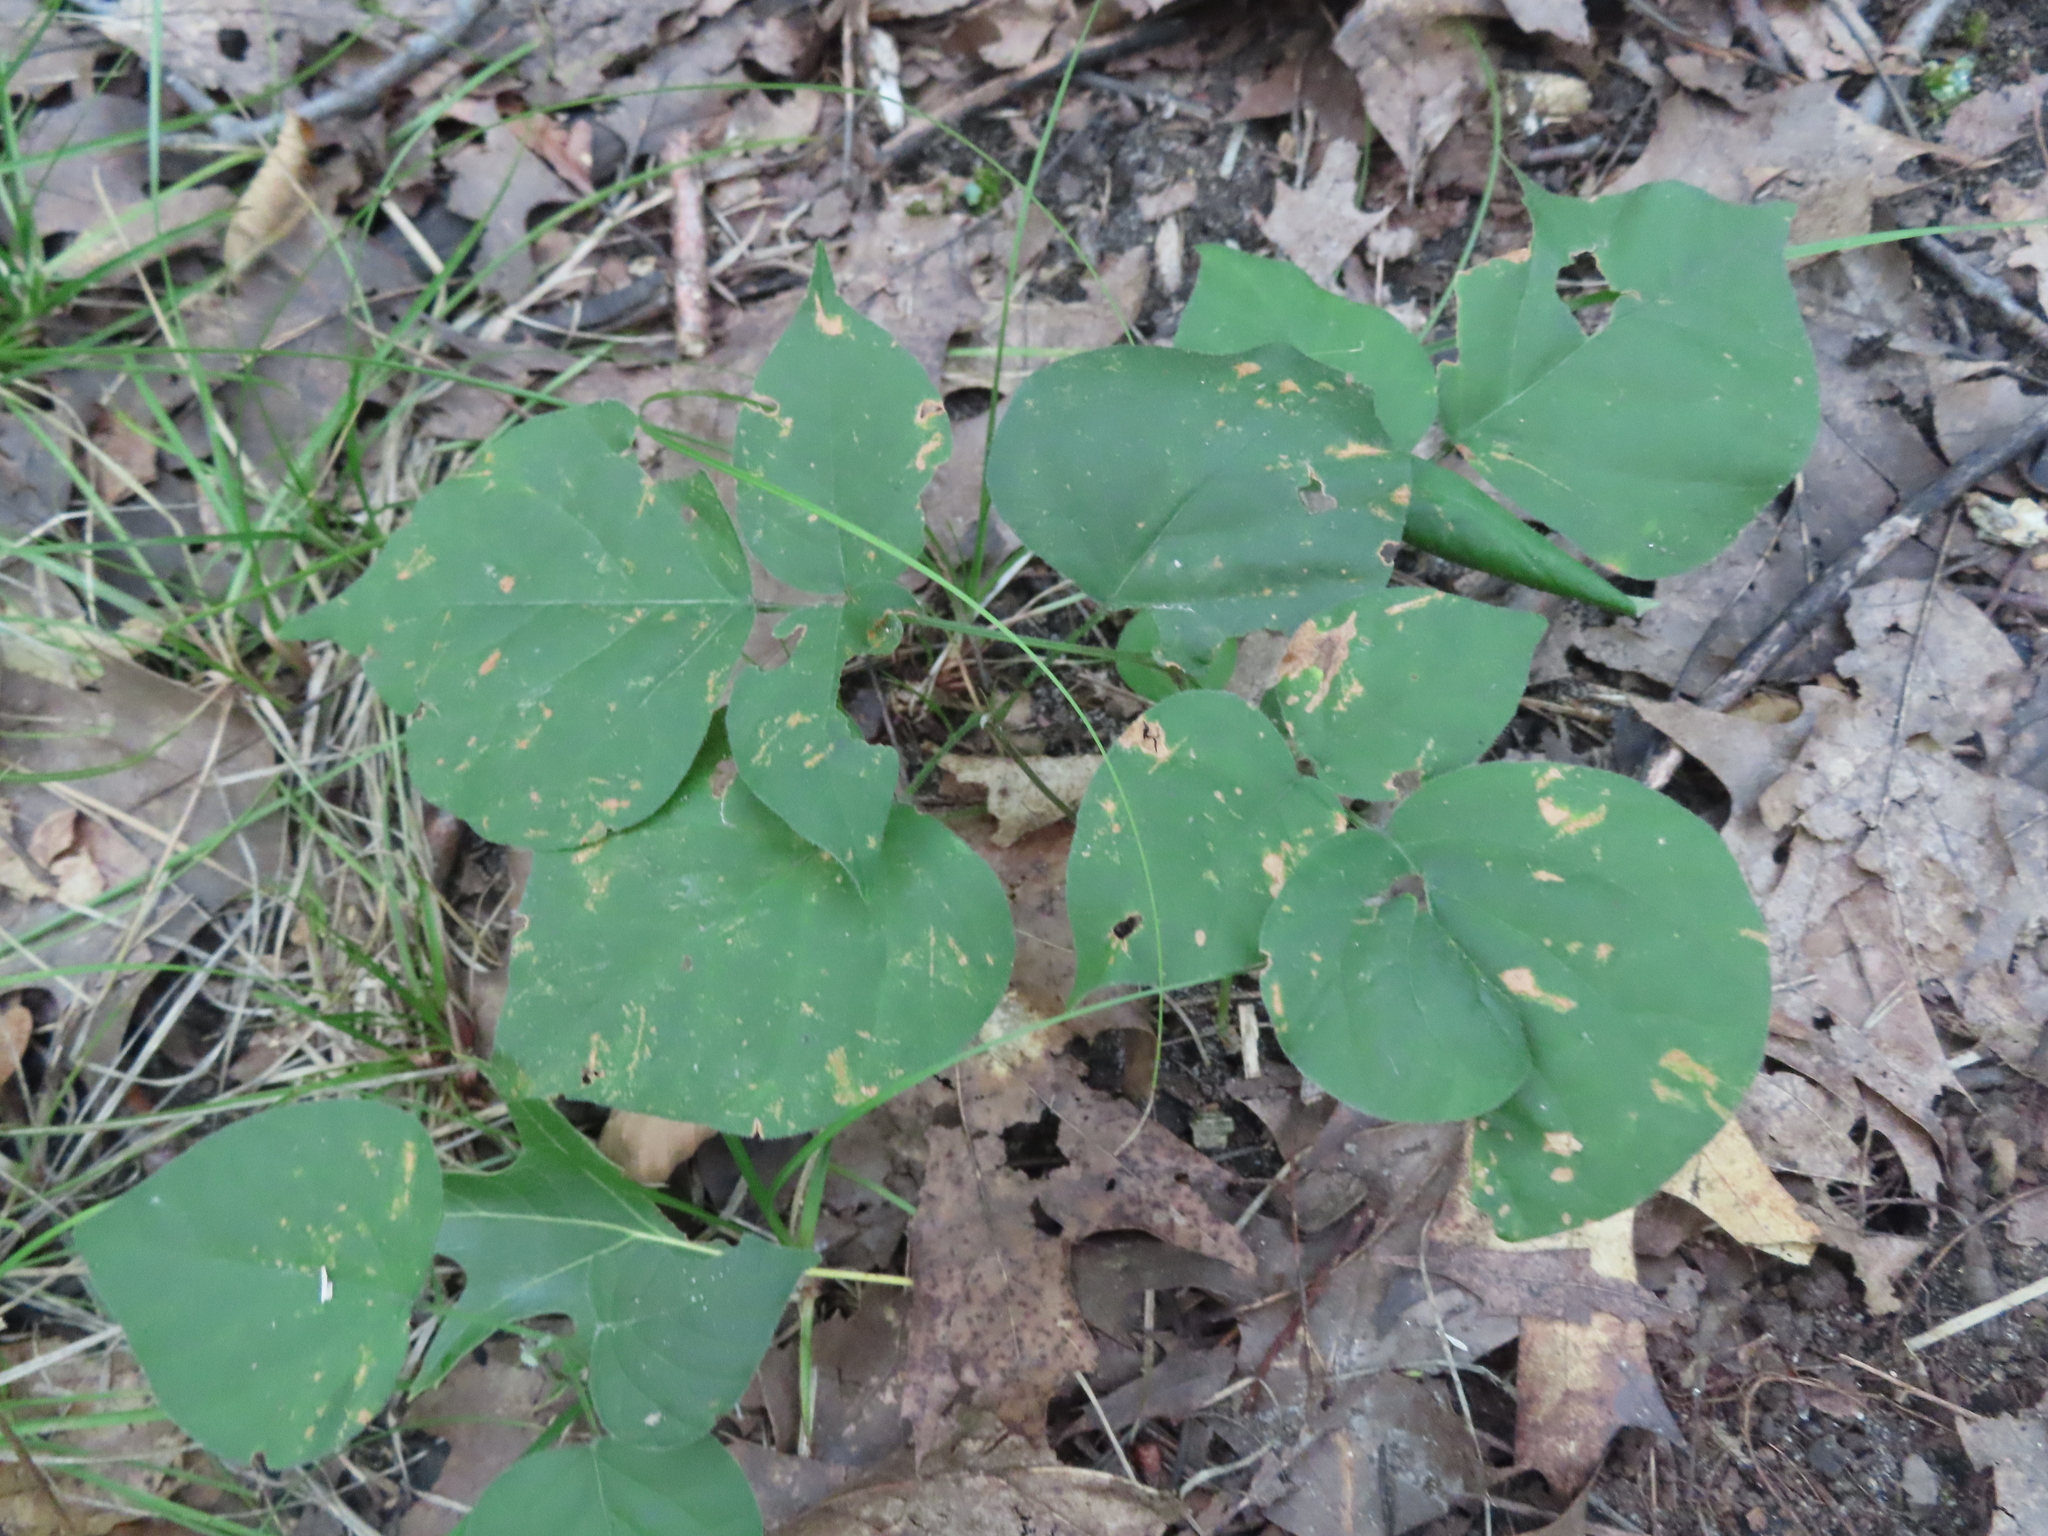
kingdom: Plantae
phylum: Tracheophyta
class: Magnoliopsida
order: Fabales
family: Fabaceae
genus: Hylodesmum
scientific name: Hylodesmum glutinosum
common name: Clustered-leaved tick-trefoil
